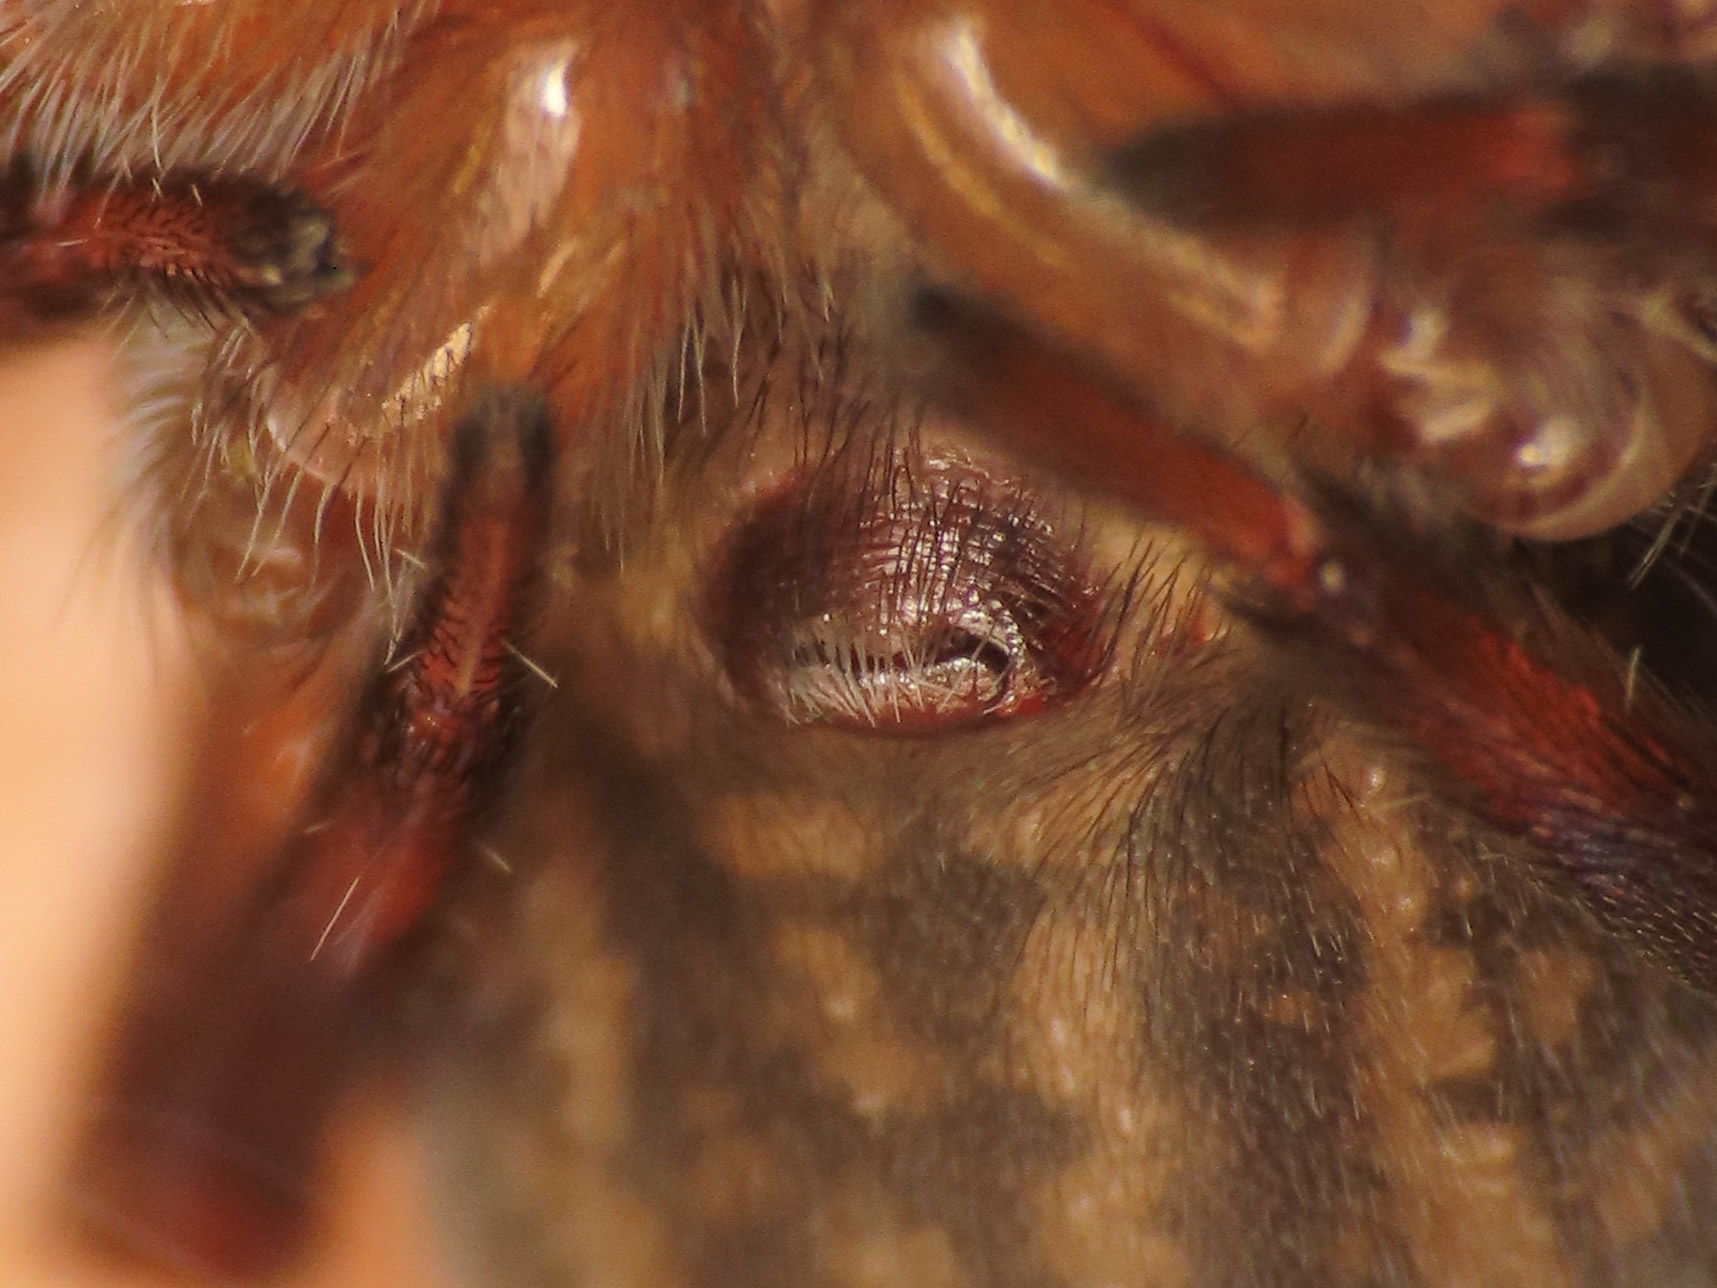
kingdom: Animalia
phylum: Arthropoda
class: Arachnida
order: Araneae
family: Amaurobiidae
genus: Amaurobius
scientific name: Amaurobius erberi
